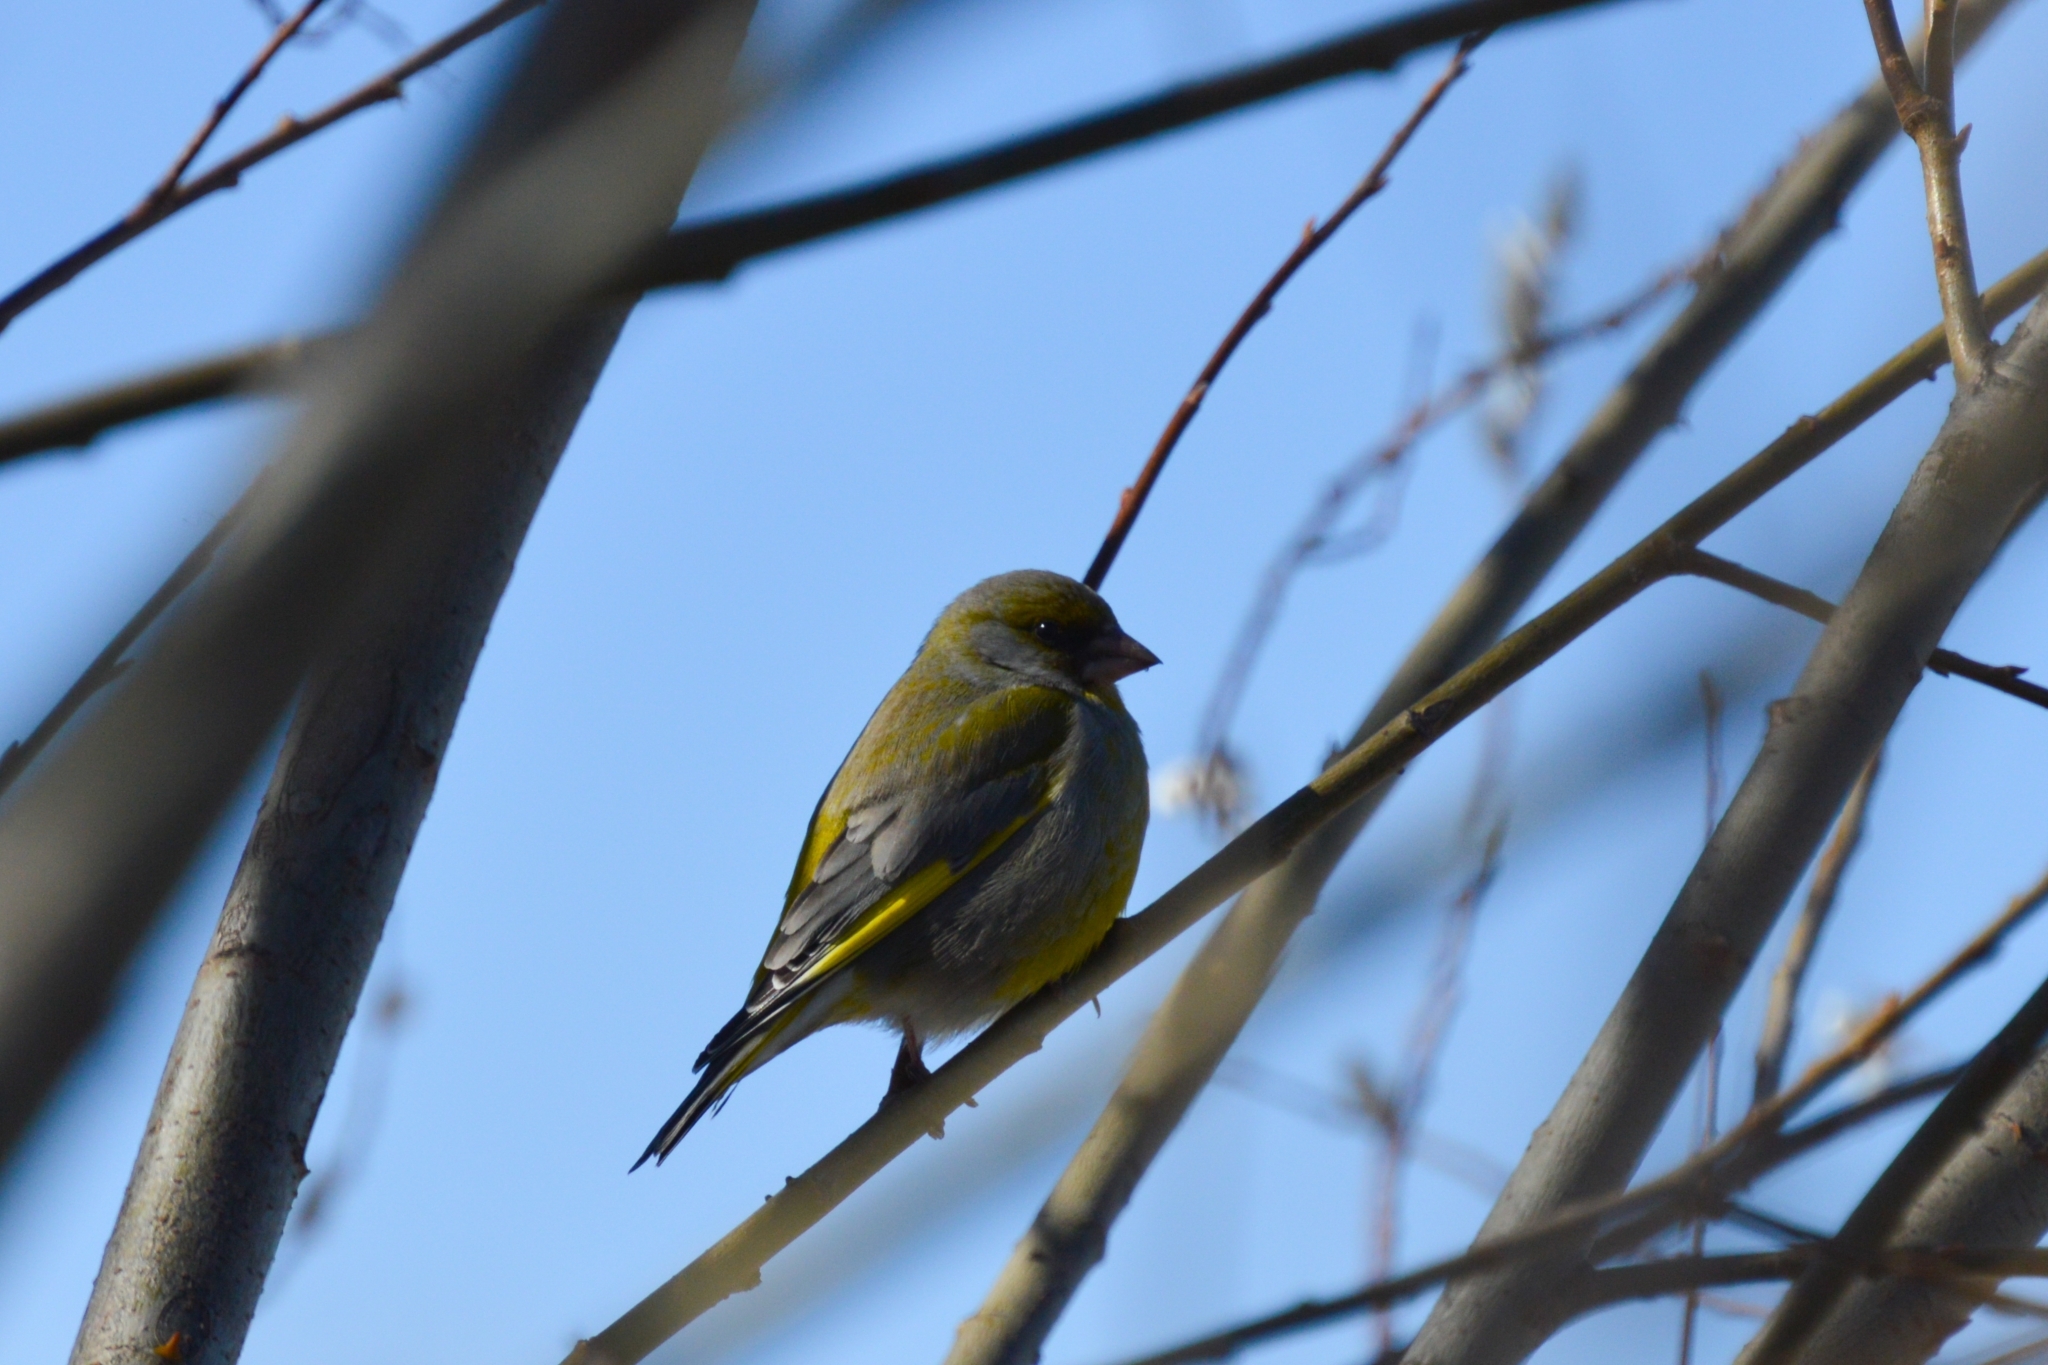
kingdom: Plantae
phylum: Tracheophyta
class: Liliopsida
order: Poales
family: Poaceae
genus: Chloris
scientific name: Chloris chloris
